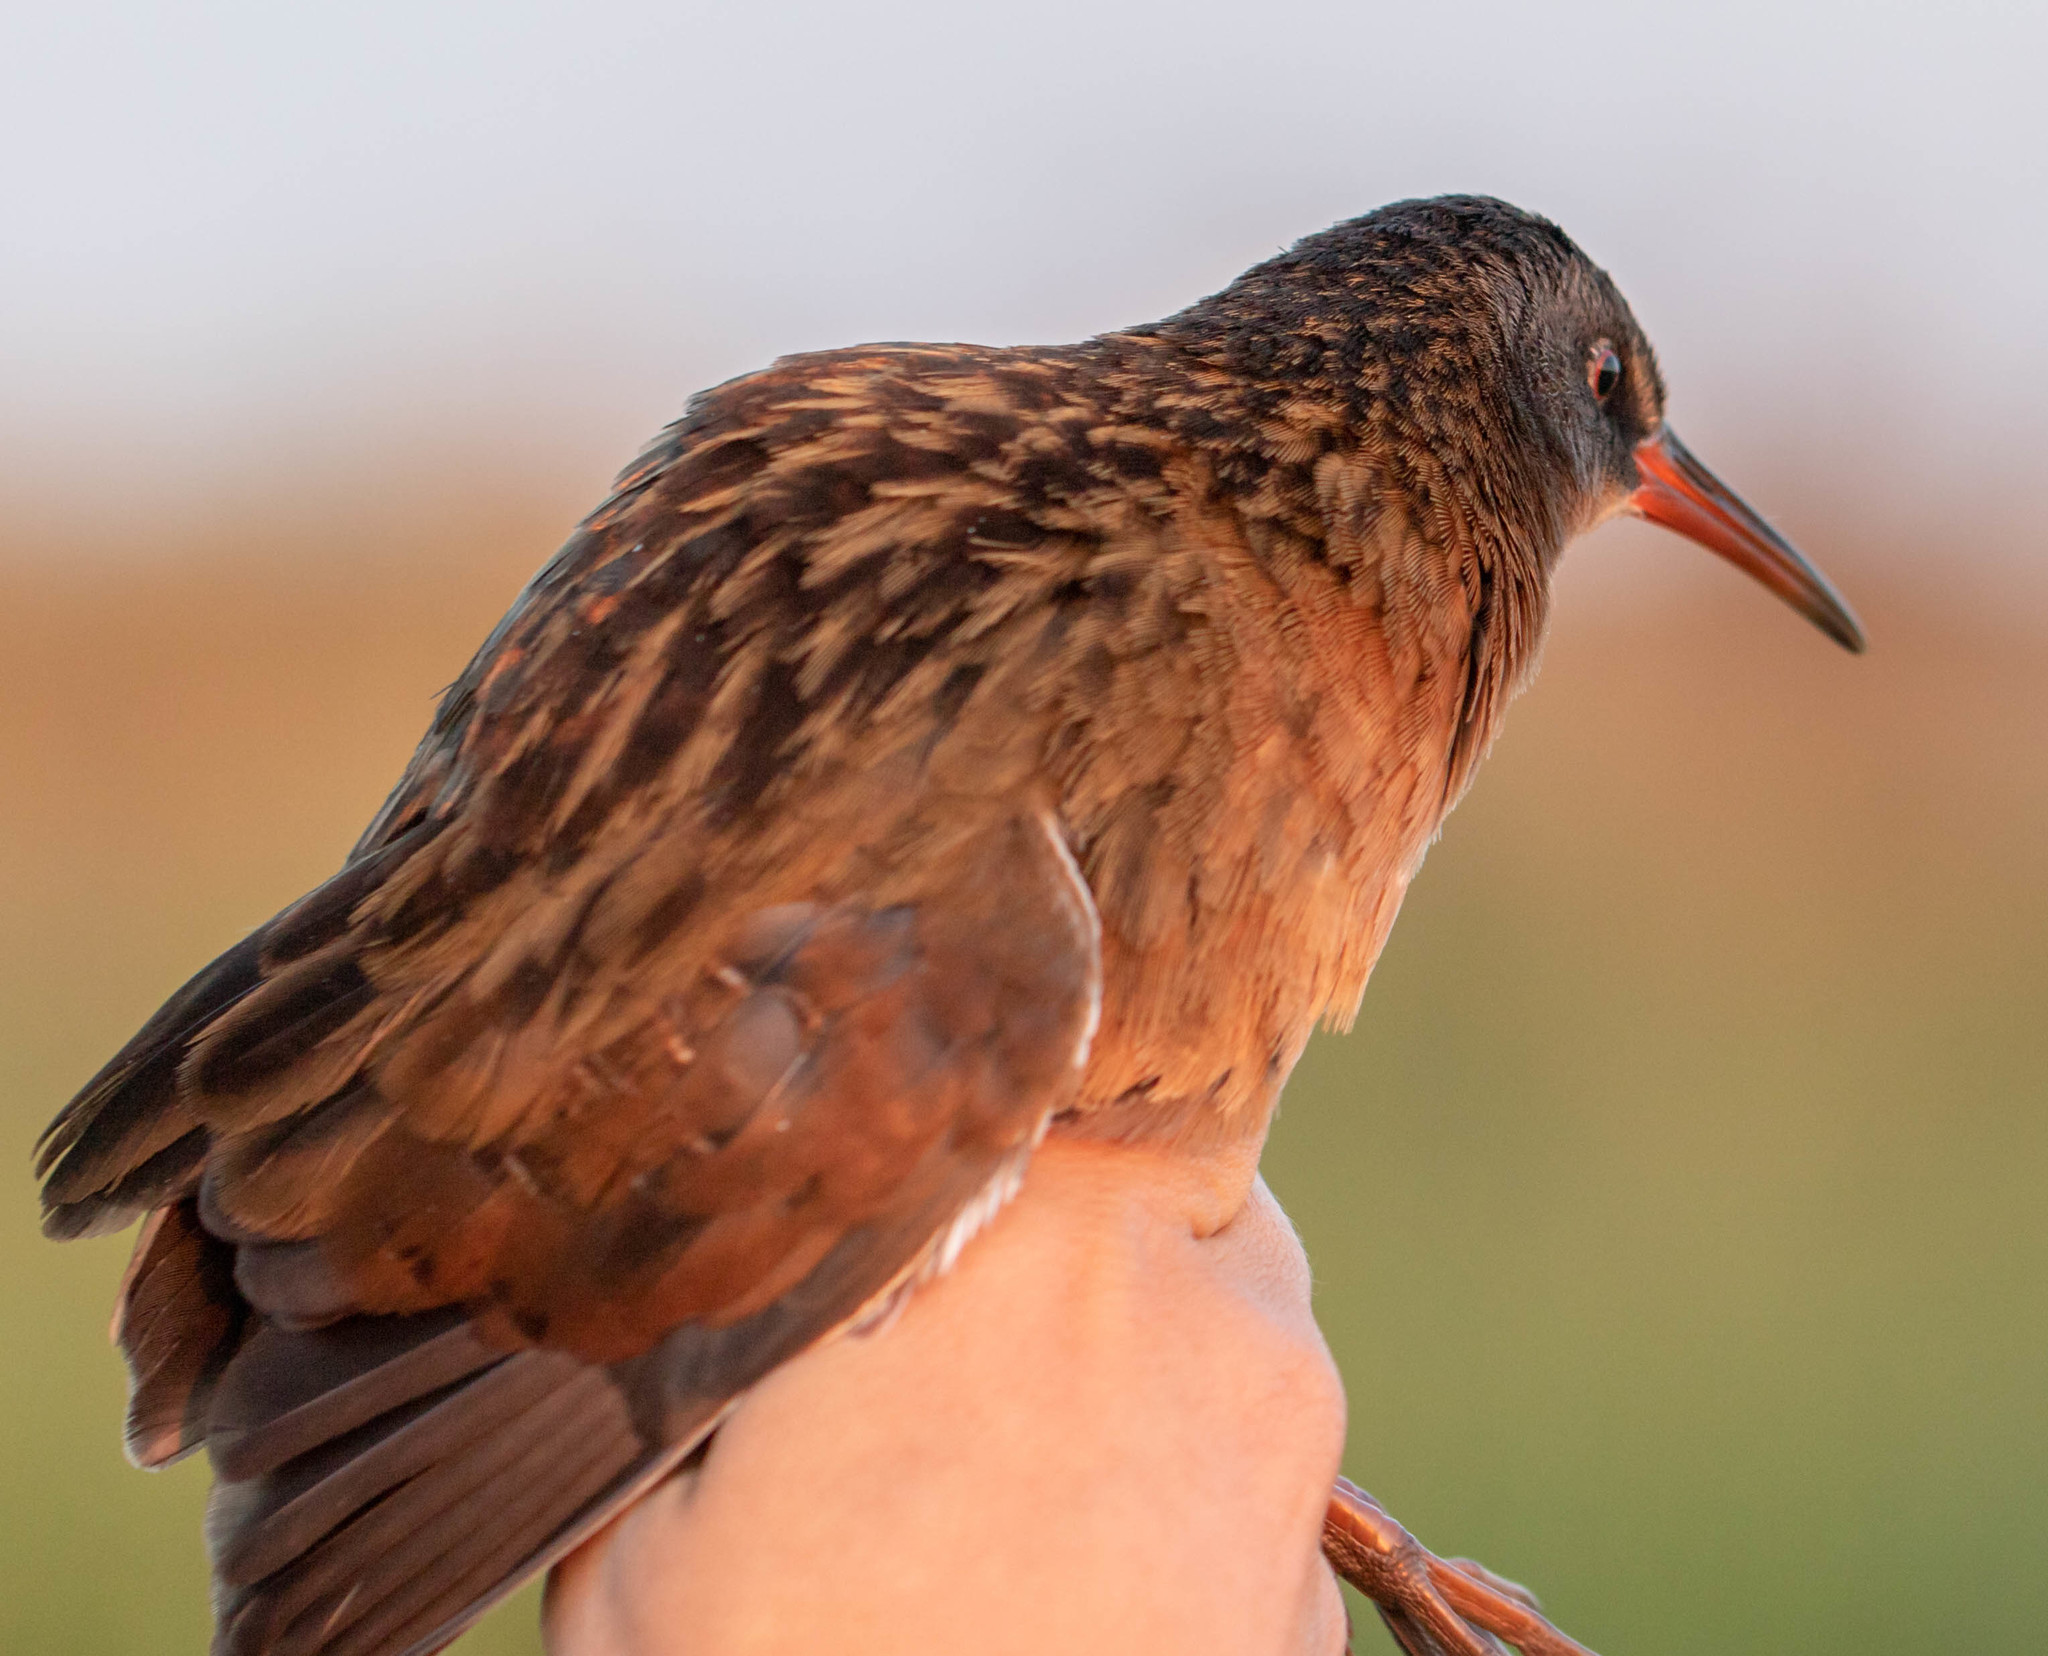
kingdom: Animalia
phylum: Chordata
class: Aves
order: Gruiformes
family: Rallidae
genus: Rallus
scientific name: Rallus limicola
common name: Virginia rail
